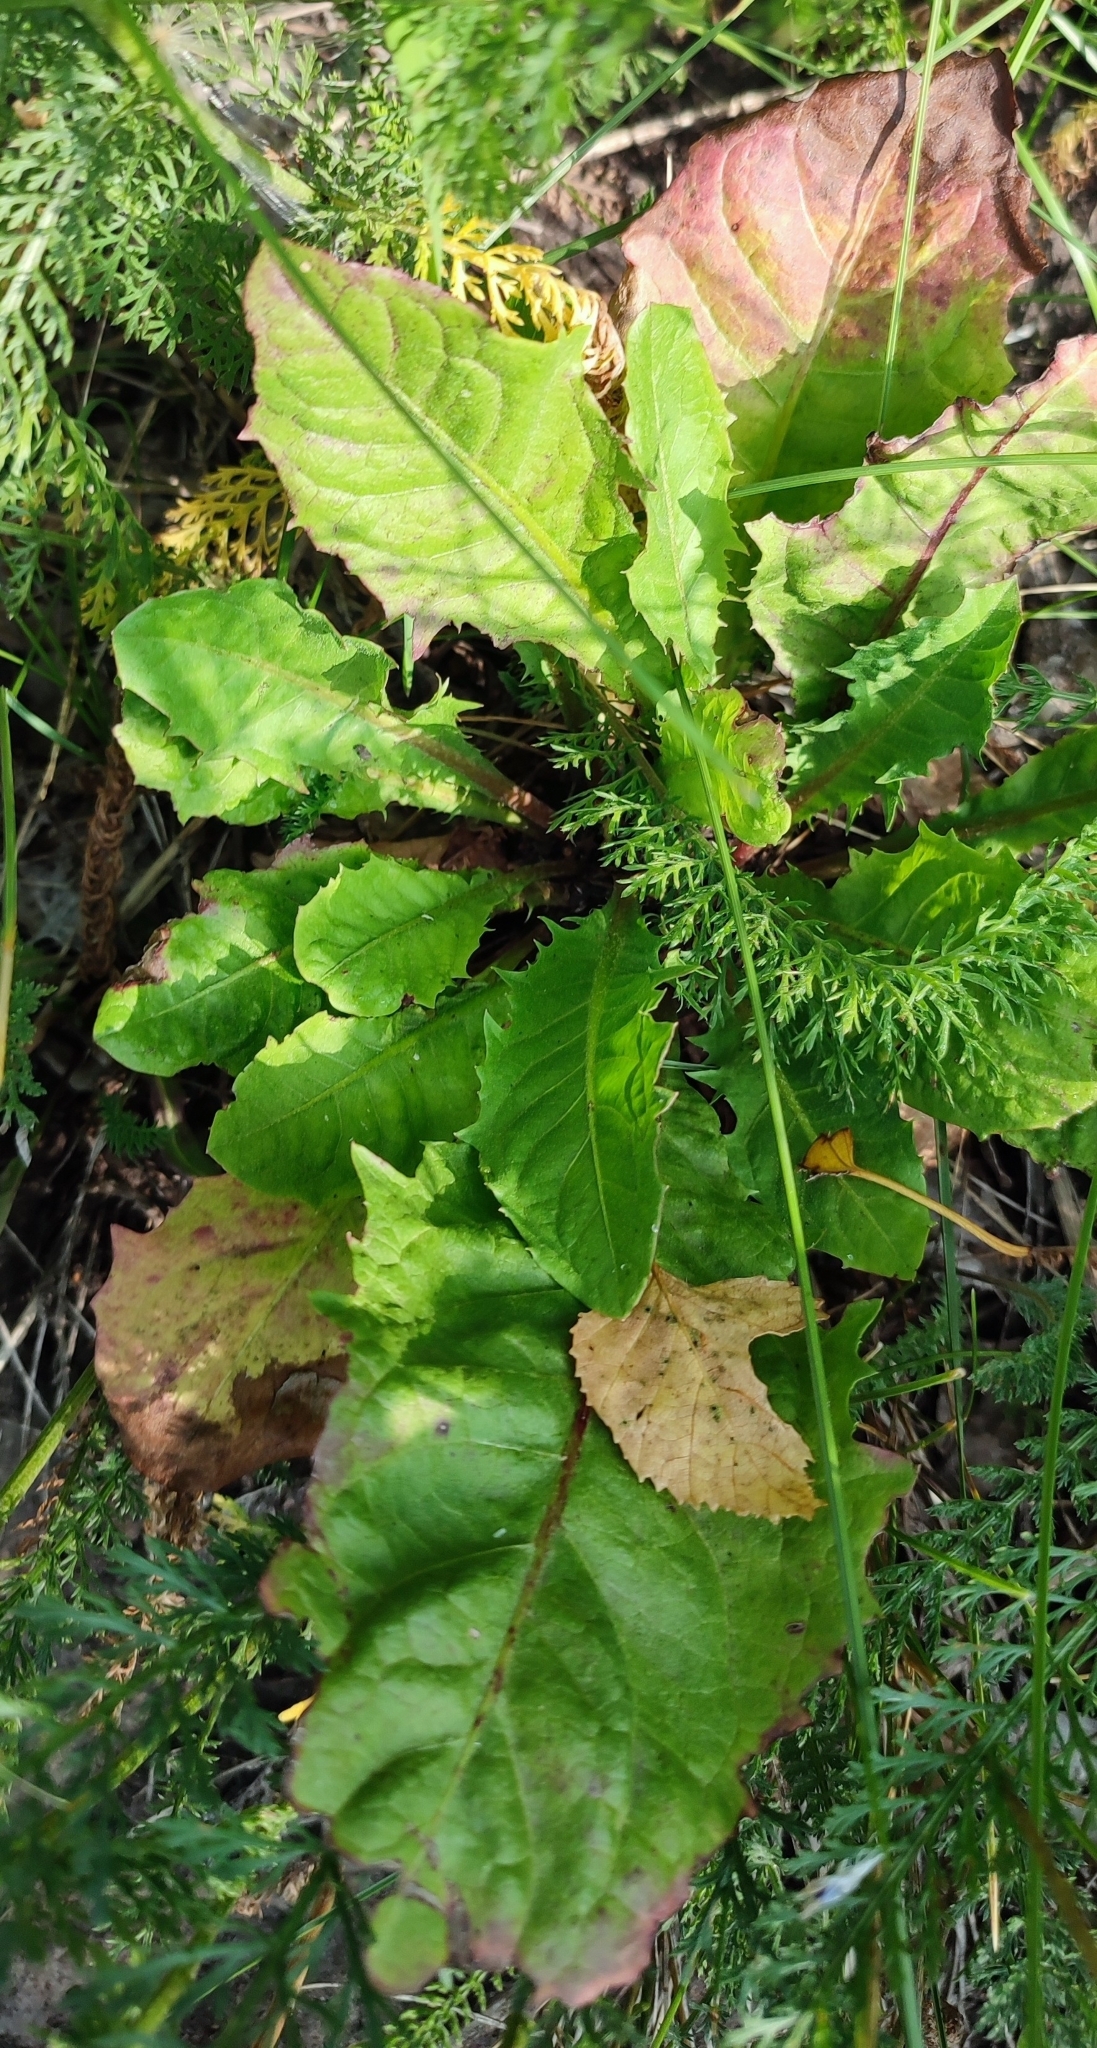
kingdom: Plantae
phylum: Tracheophyta
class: Magnoliopsida
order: Asterales
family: Asteraceae
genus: Taraxacum
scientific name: Taraxacum officinale
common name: Common dandelion
